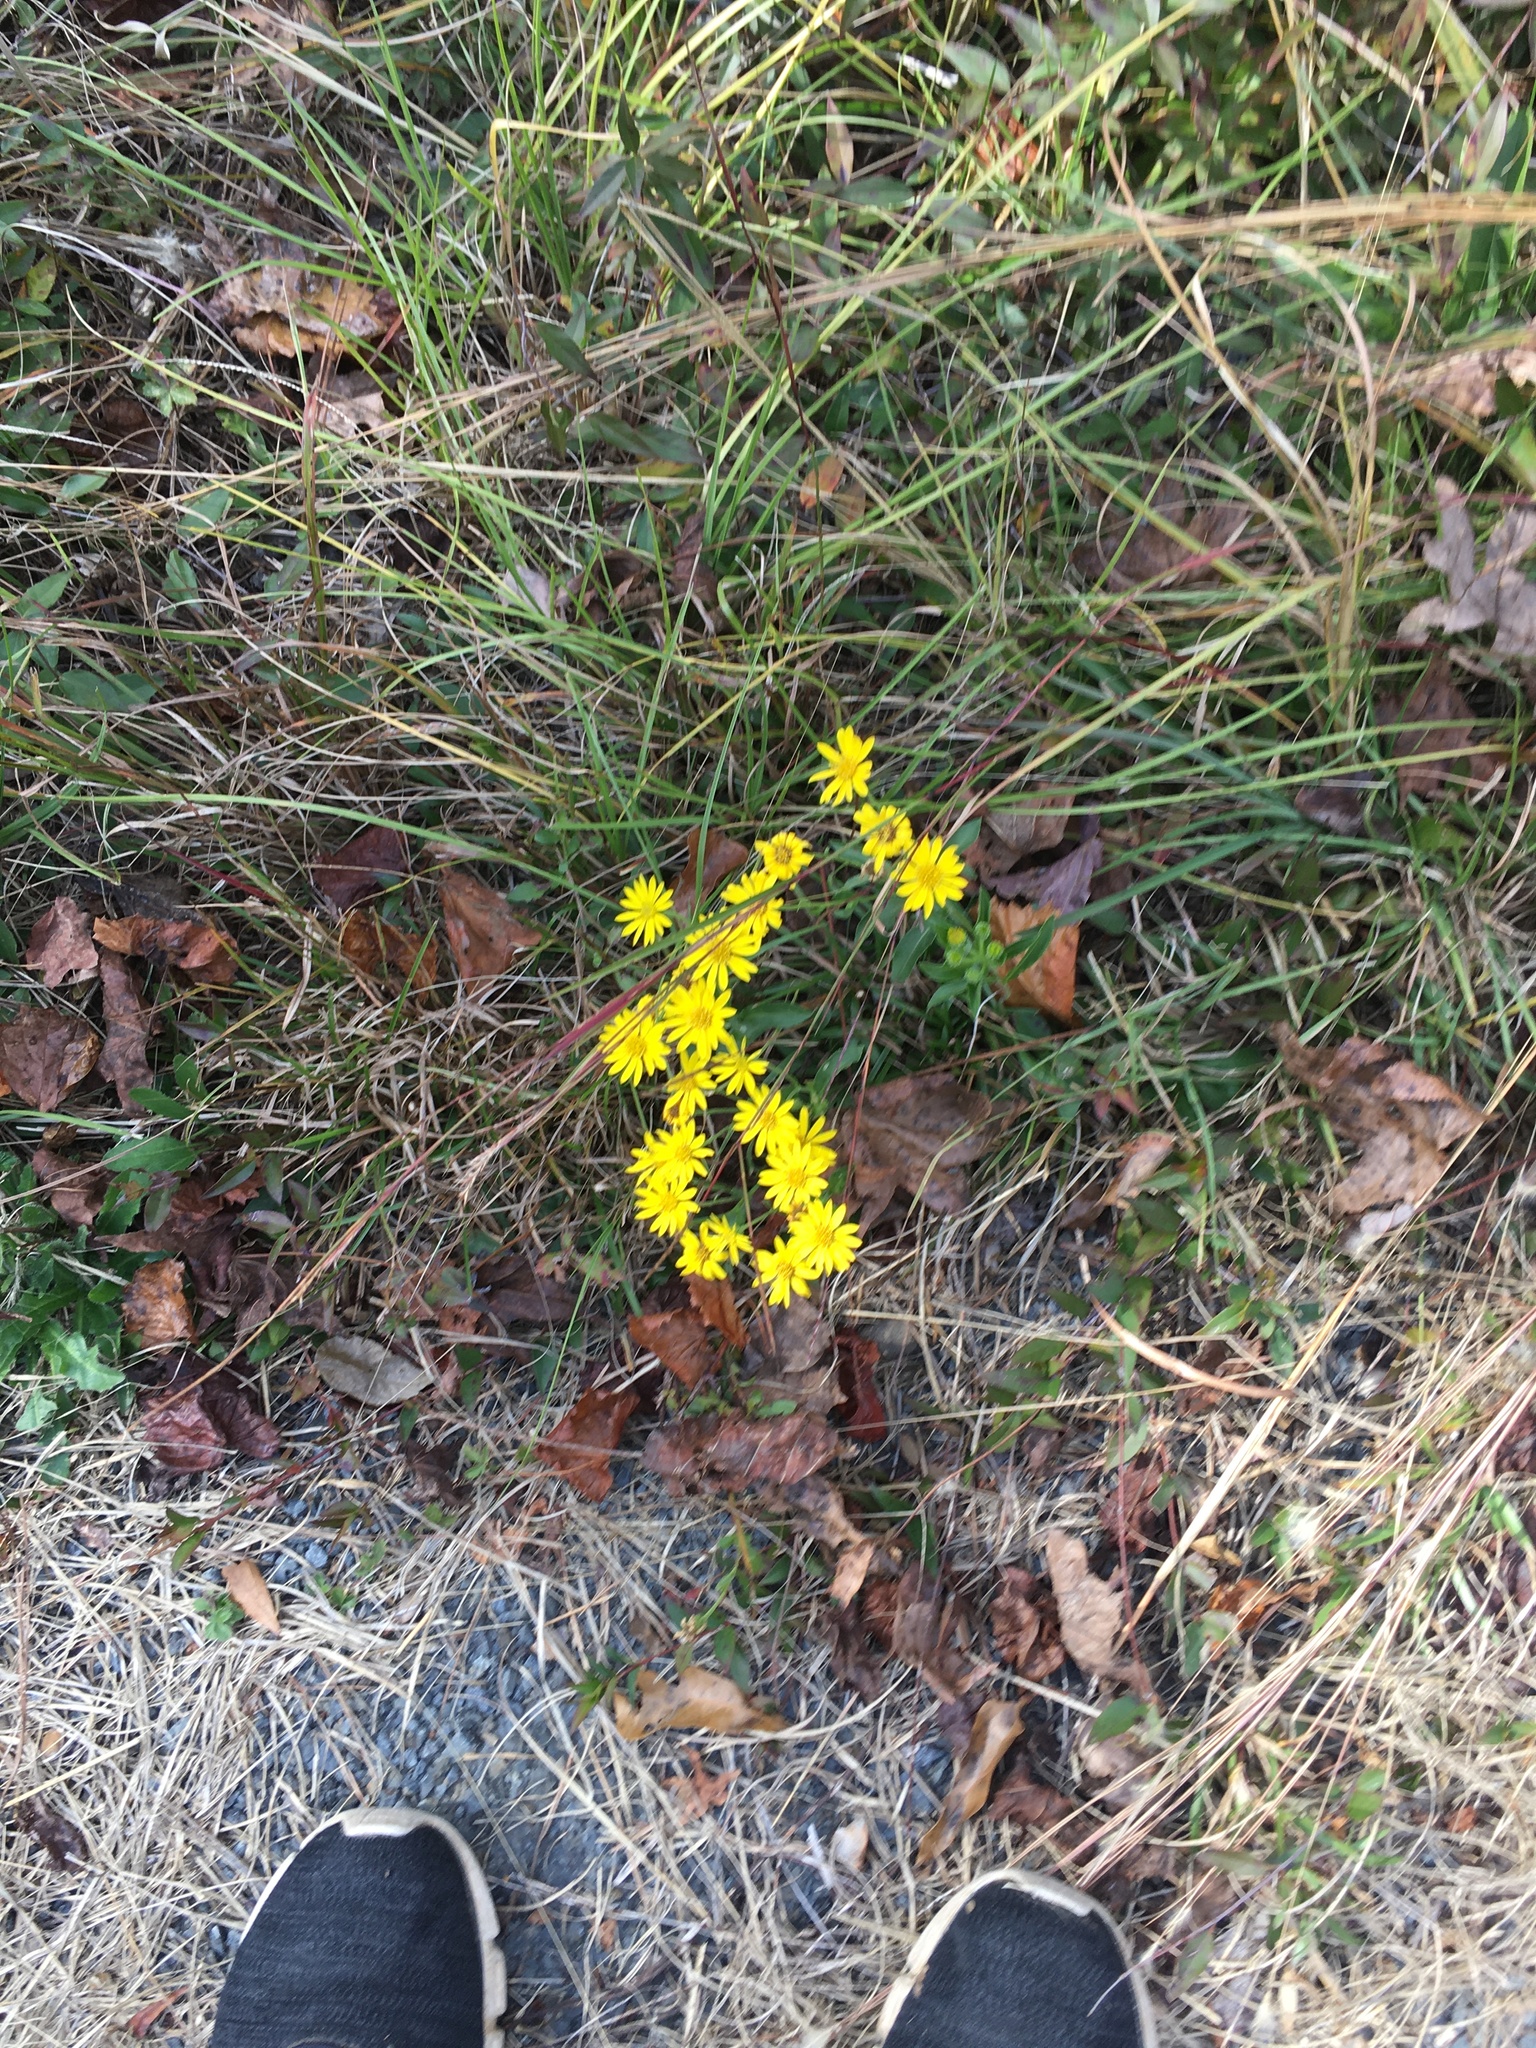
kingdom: Plantae
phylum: Tracheophyta
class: Magnoliopsida
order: Asterales
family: Asteraceae
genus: Chrysopsis
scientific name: Chrysopsis mariana
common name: Maryland golden-aster
